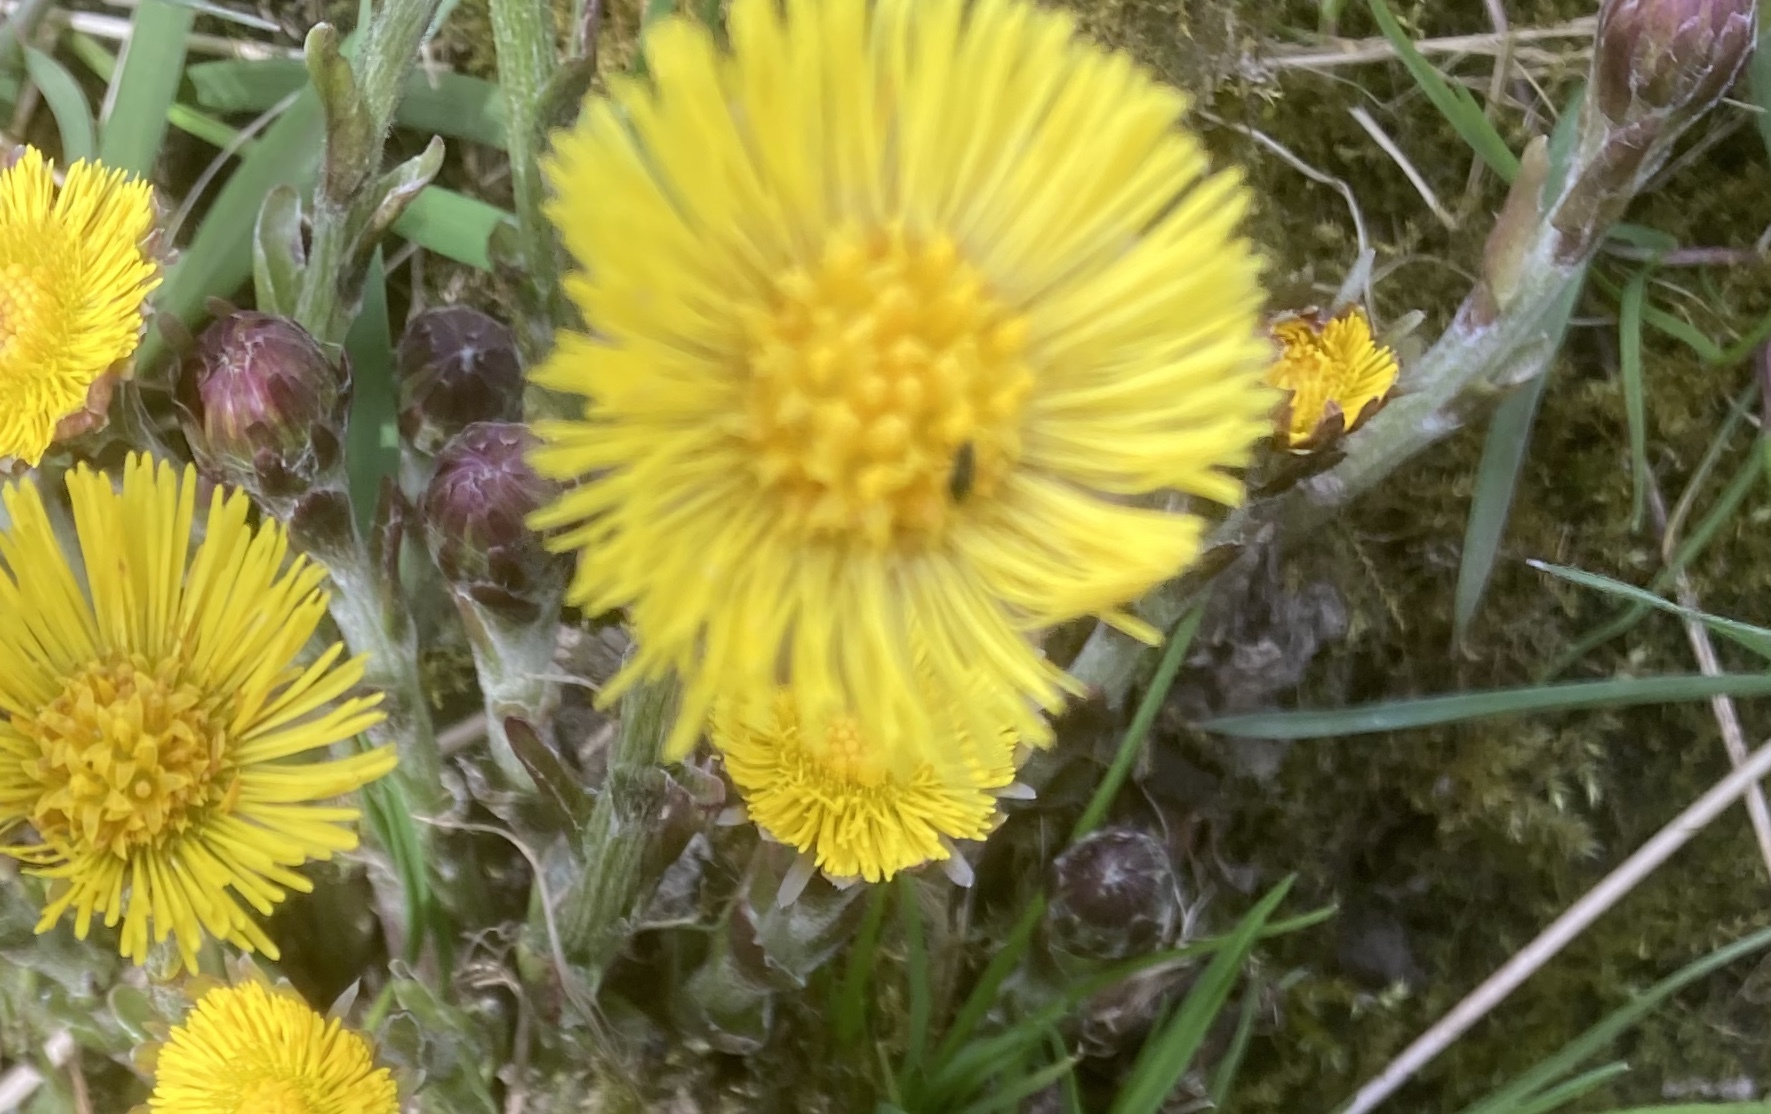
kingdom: Plantae
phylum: Tracheophyta
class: Magnoliopsida
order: Asterales
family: Asteraceae
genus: Tussilago
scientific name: Tussilago farfara
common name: Coltsfoot
